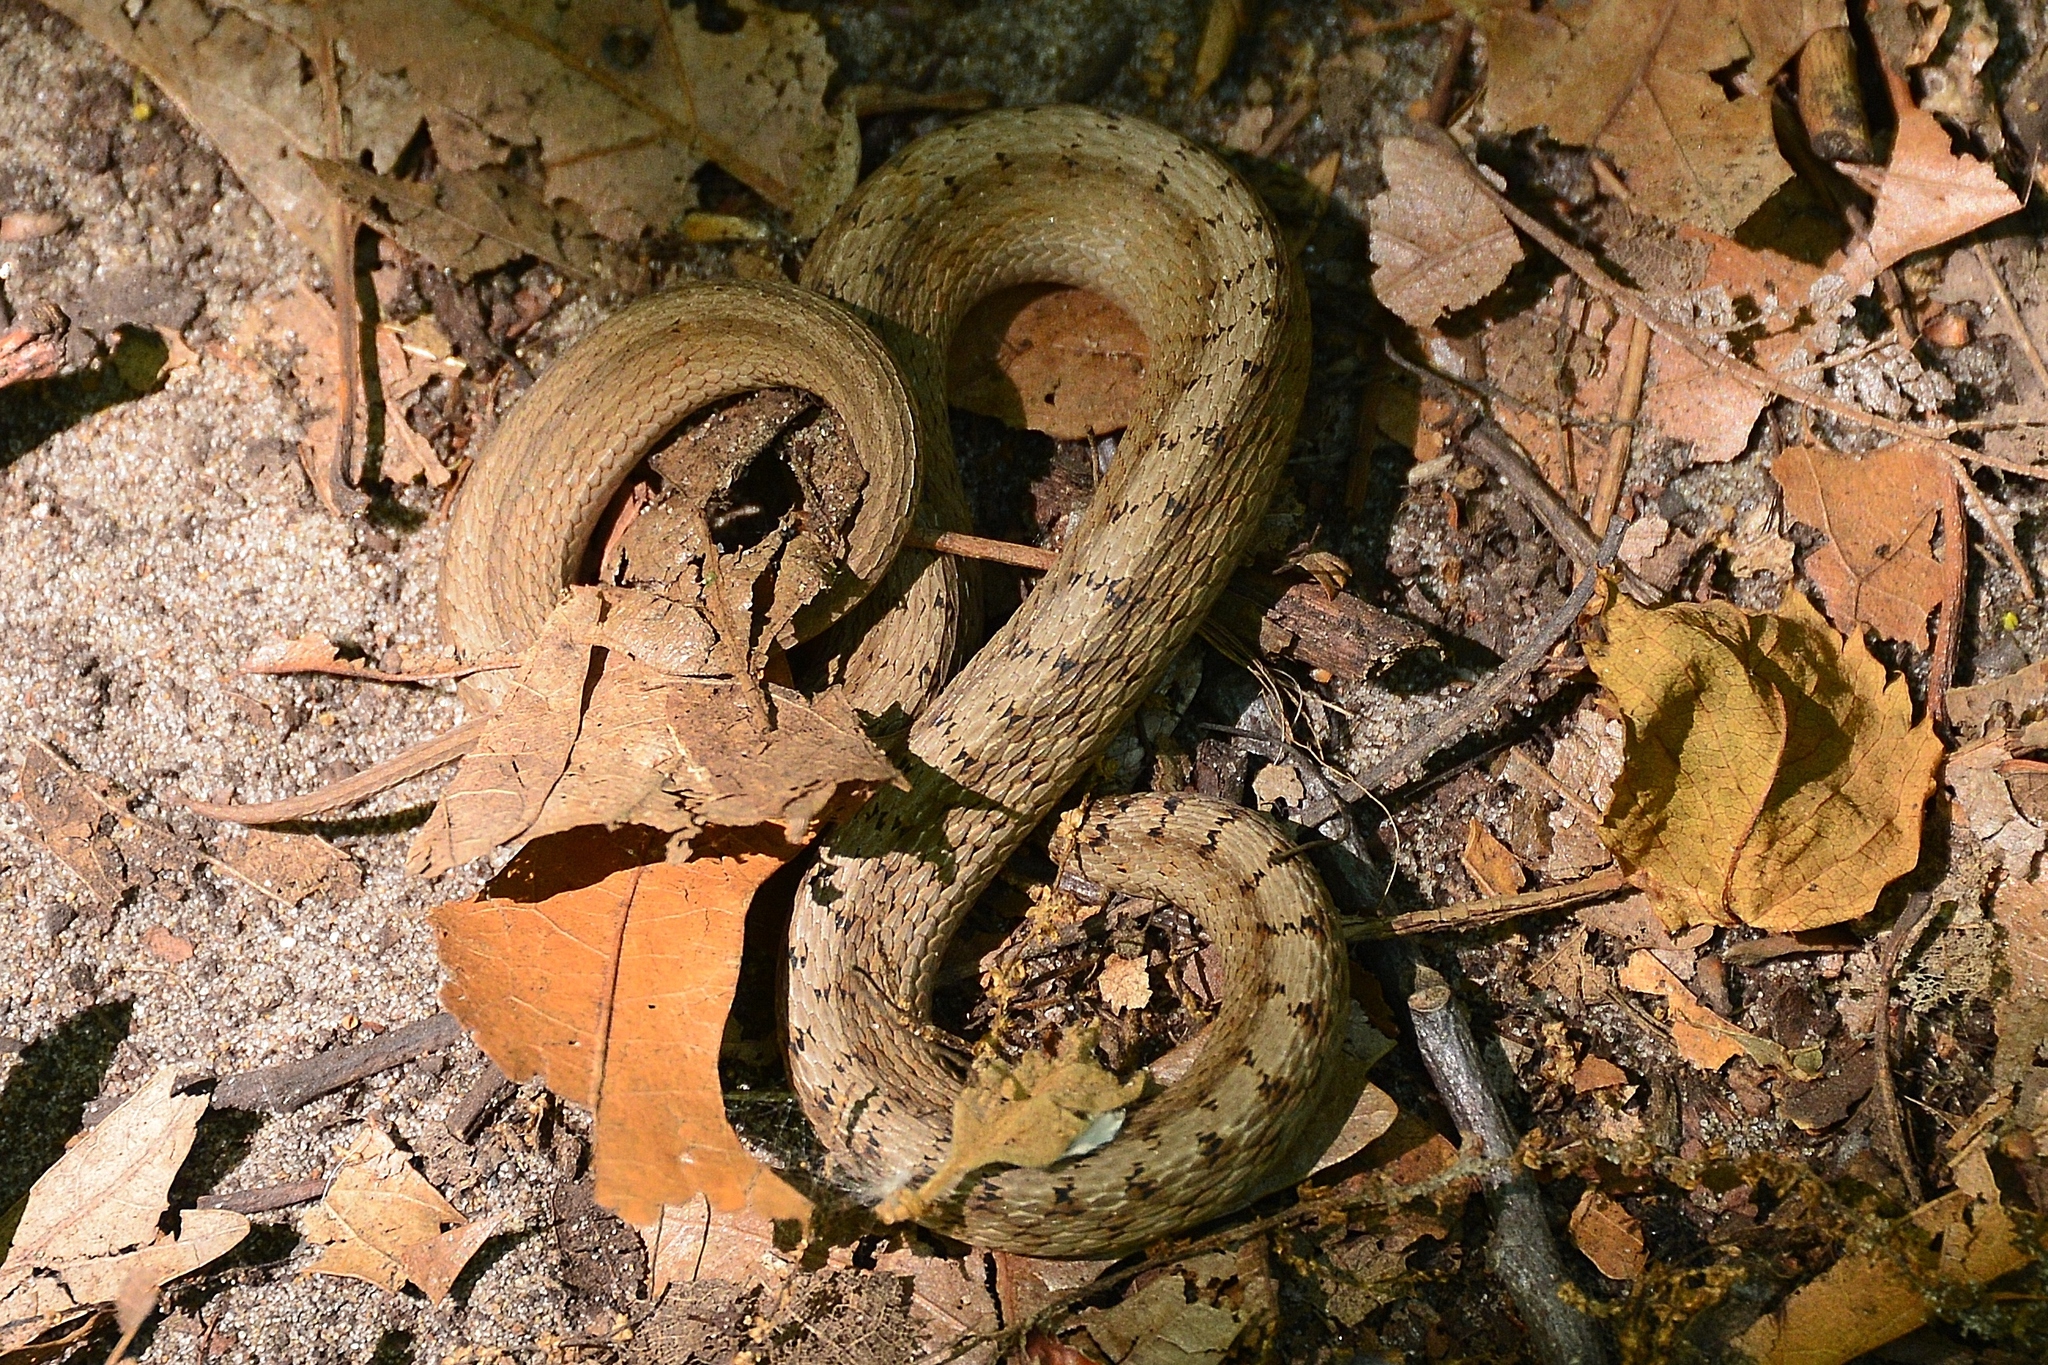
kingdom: Animalia
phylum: Chordata
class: Squamata
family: Colubridae
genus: Storeria
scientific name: Storeria dekayi
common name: (dekay’s) brown snake
